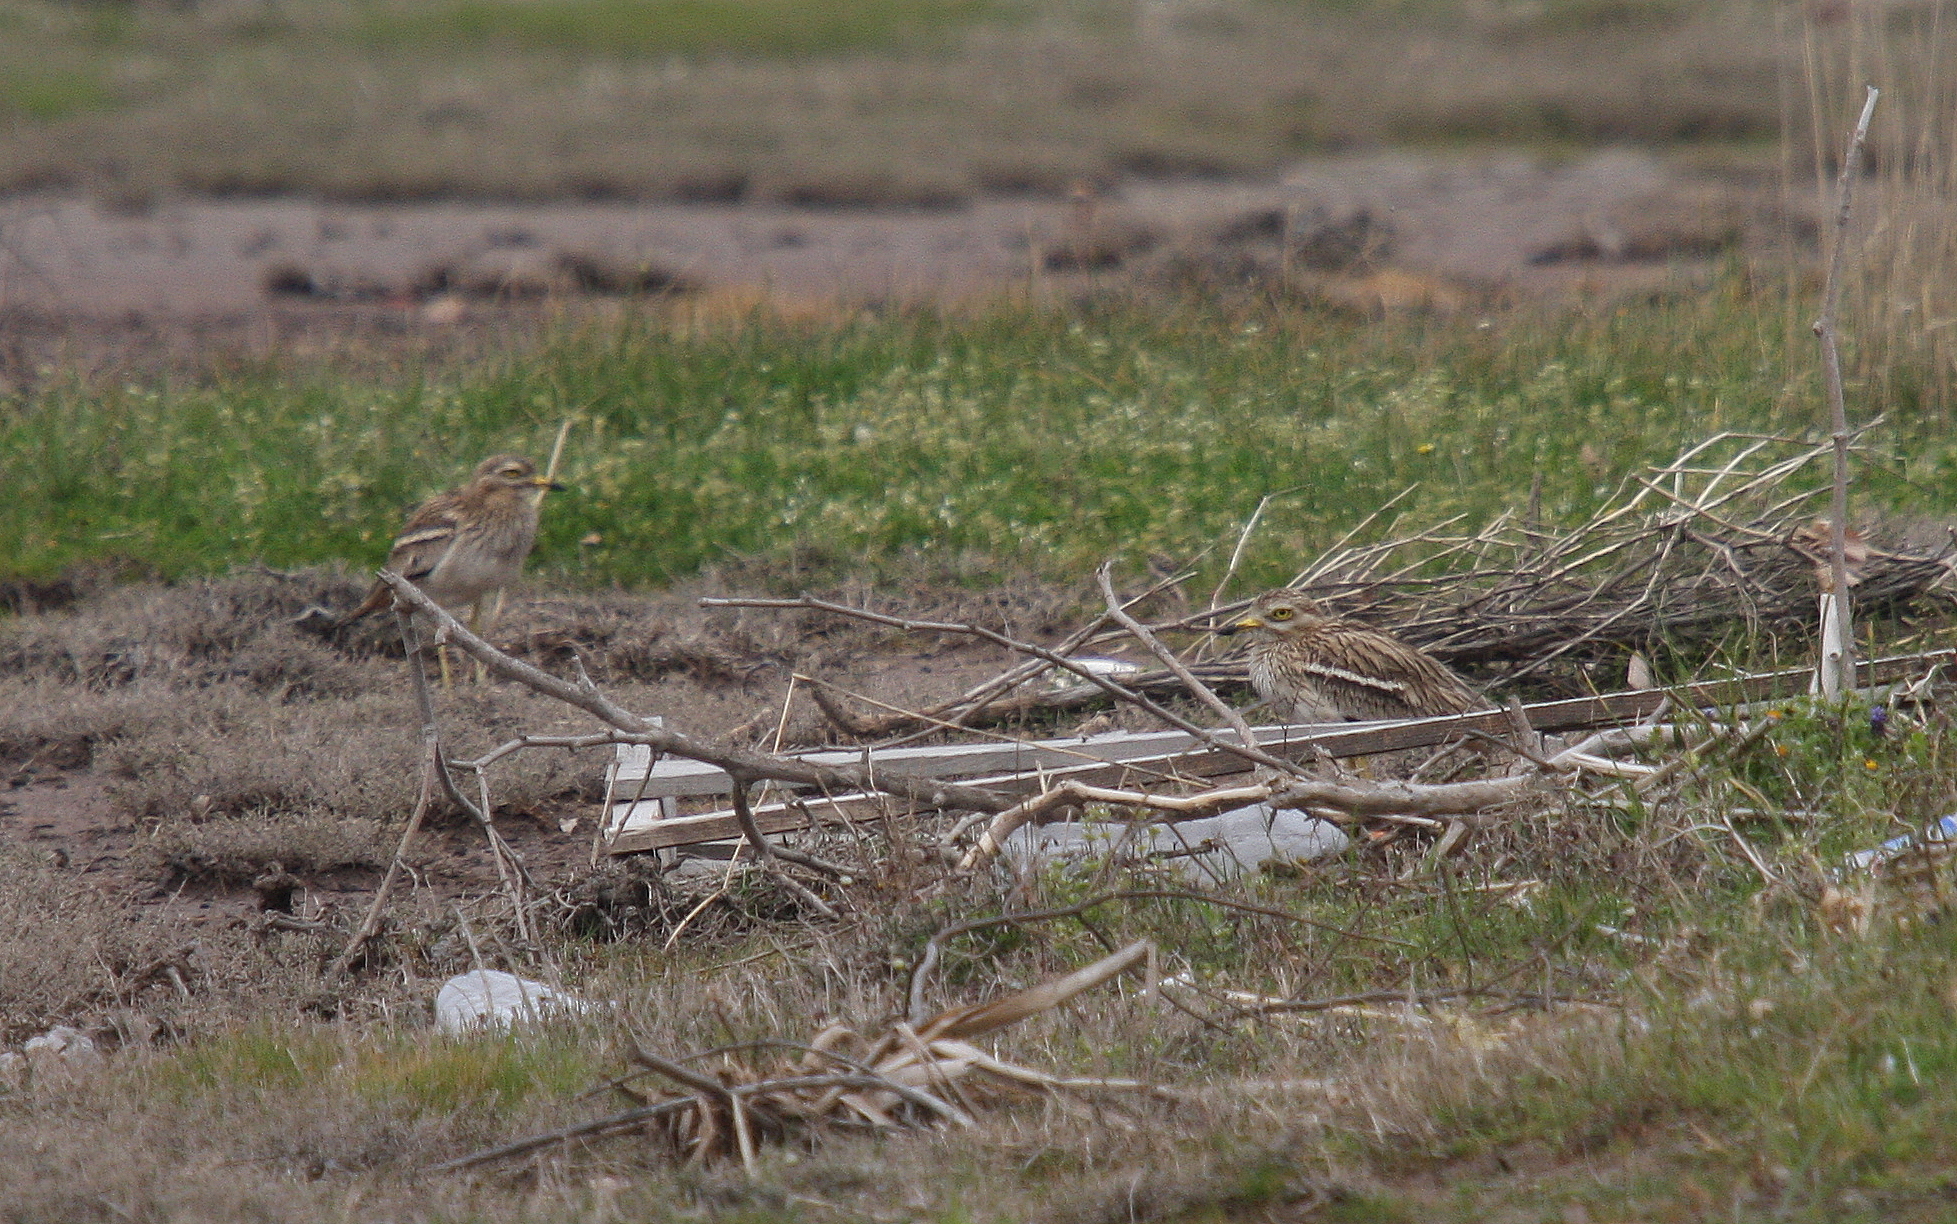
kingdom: Animalia
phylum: Chordata
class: Aves
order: Charadriiformes
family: Burhinidae
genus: Burhinus
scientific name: Burhinus oedicnemus
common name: Eurasian stone-curlew
